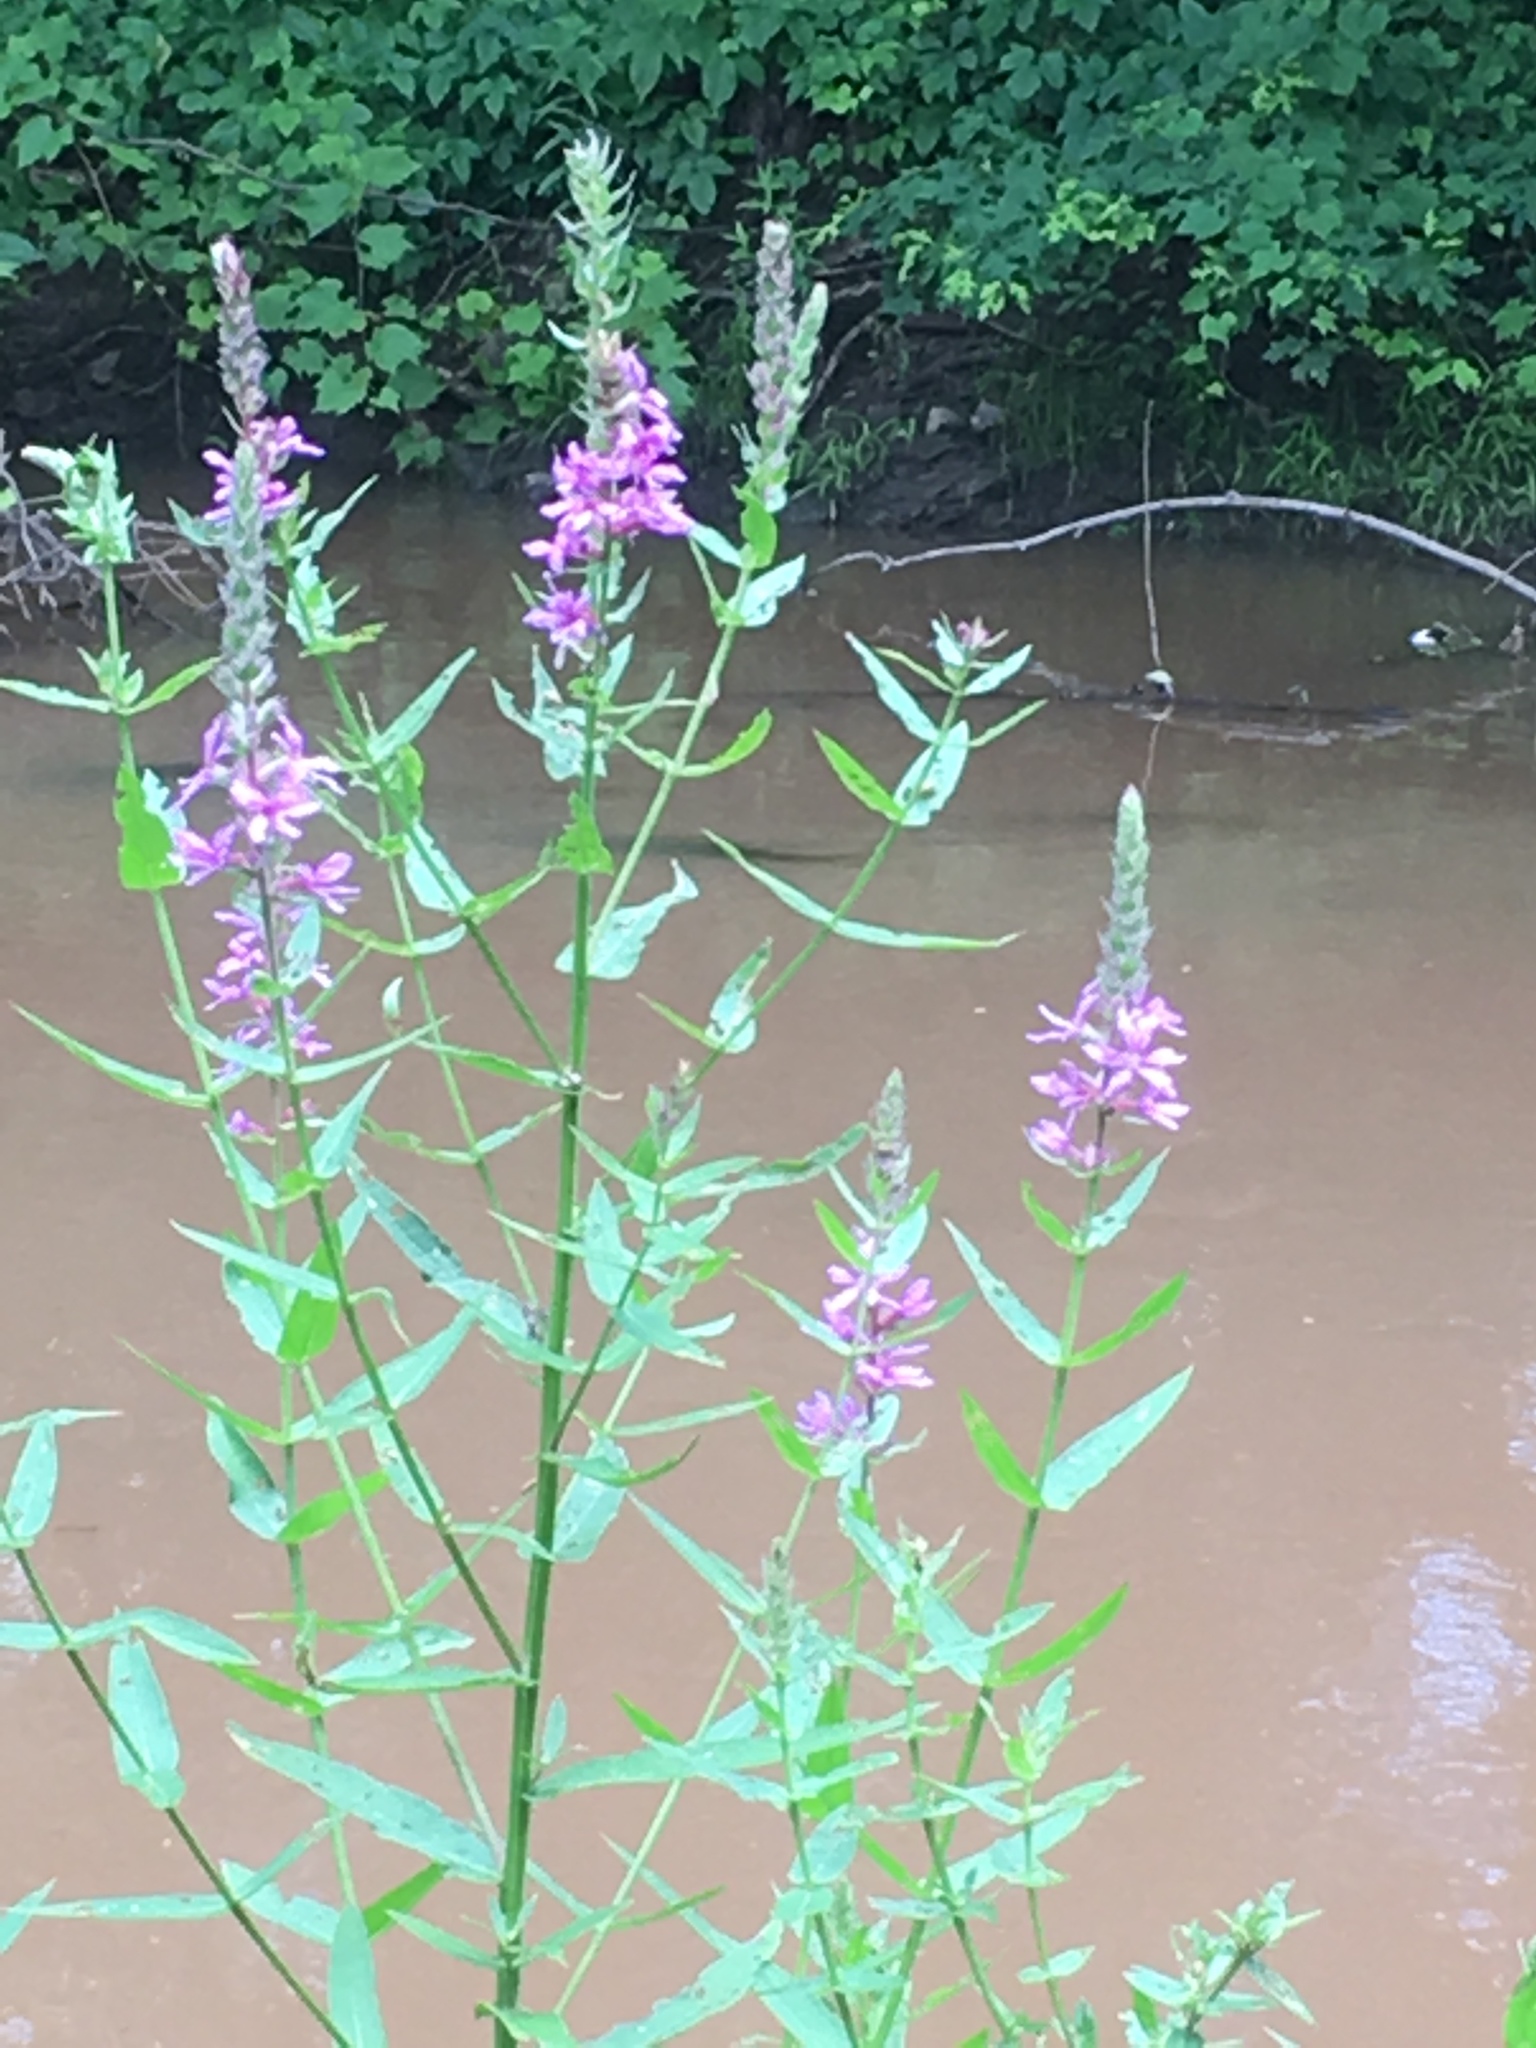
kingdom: Plantae
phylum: Tracheophyta
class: Magnoliopsida
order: Myrtales
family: Lythraceae
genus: Lythrum
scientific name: Lythrum salicaria
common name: Purple loosestrife
